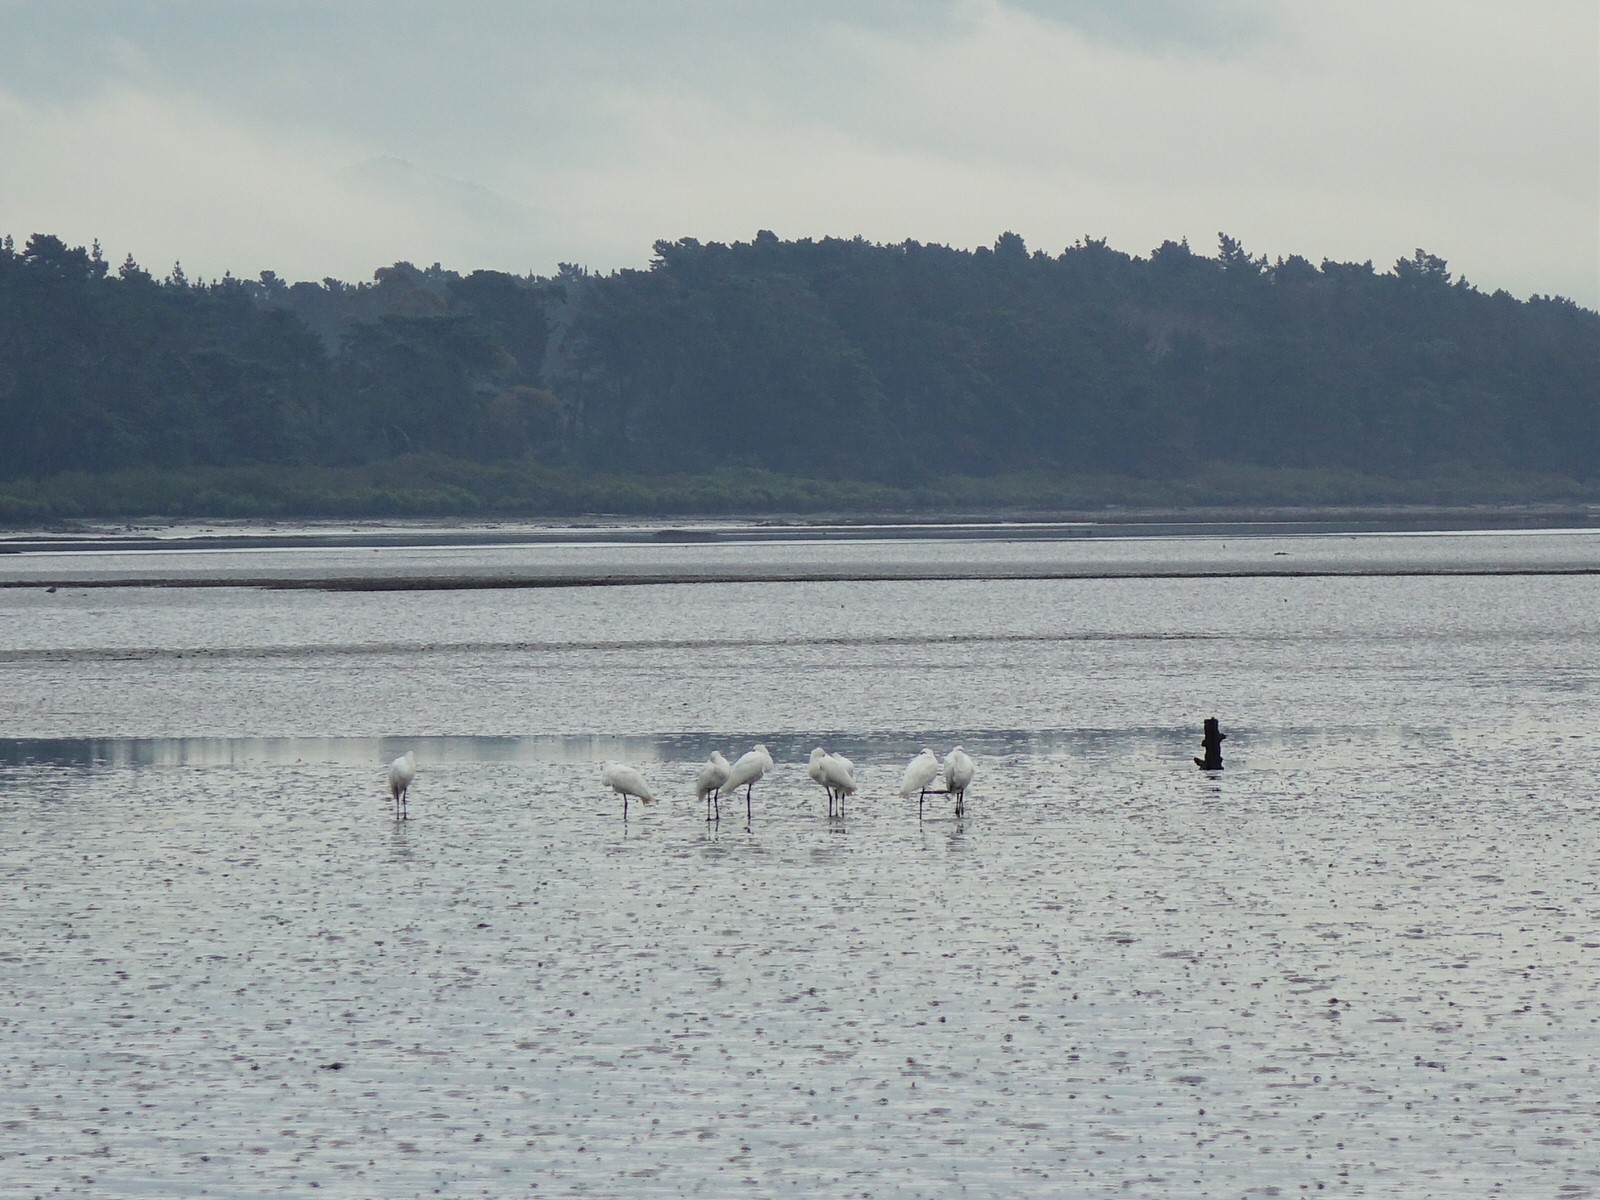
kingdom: Animalia
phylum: Chordata
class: Aves
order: Pelecaniformes
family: Threskiornithidae
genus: Platalea
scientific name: Platalea regia
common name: Royal spoonbill
